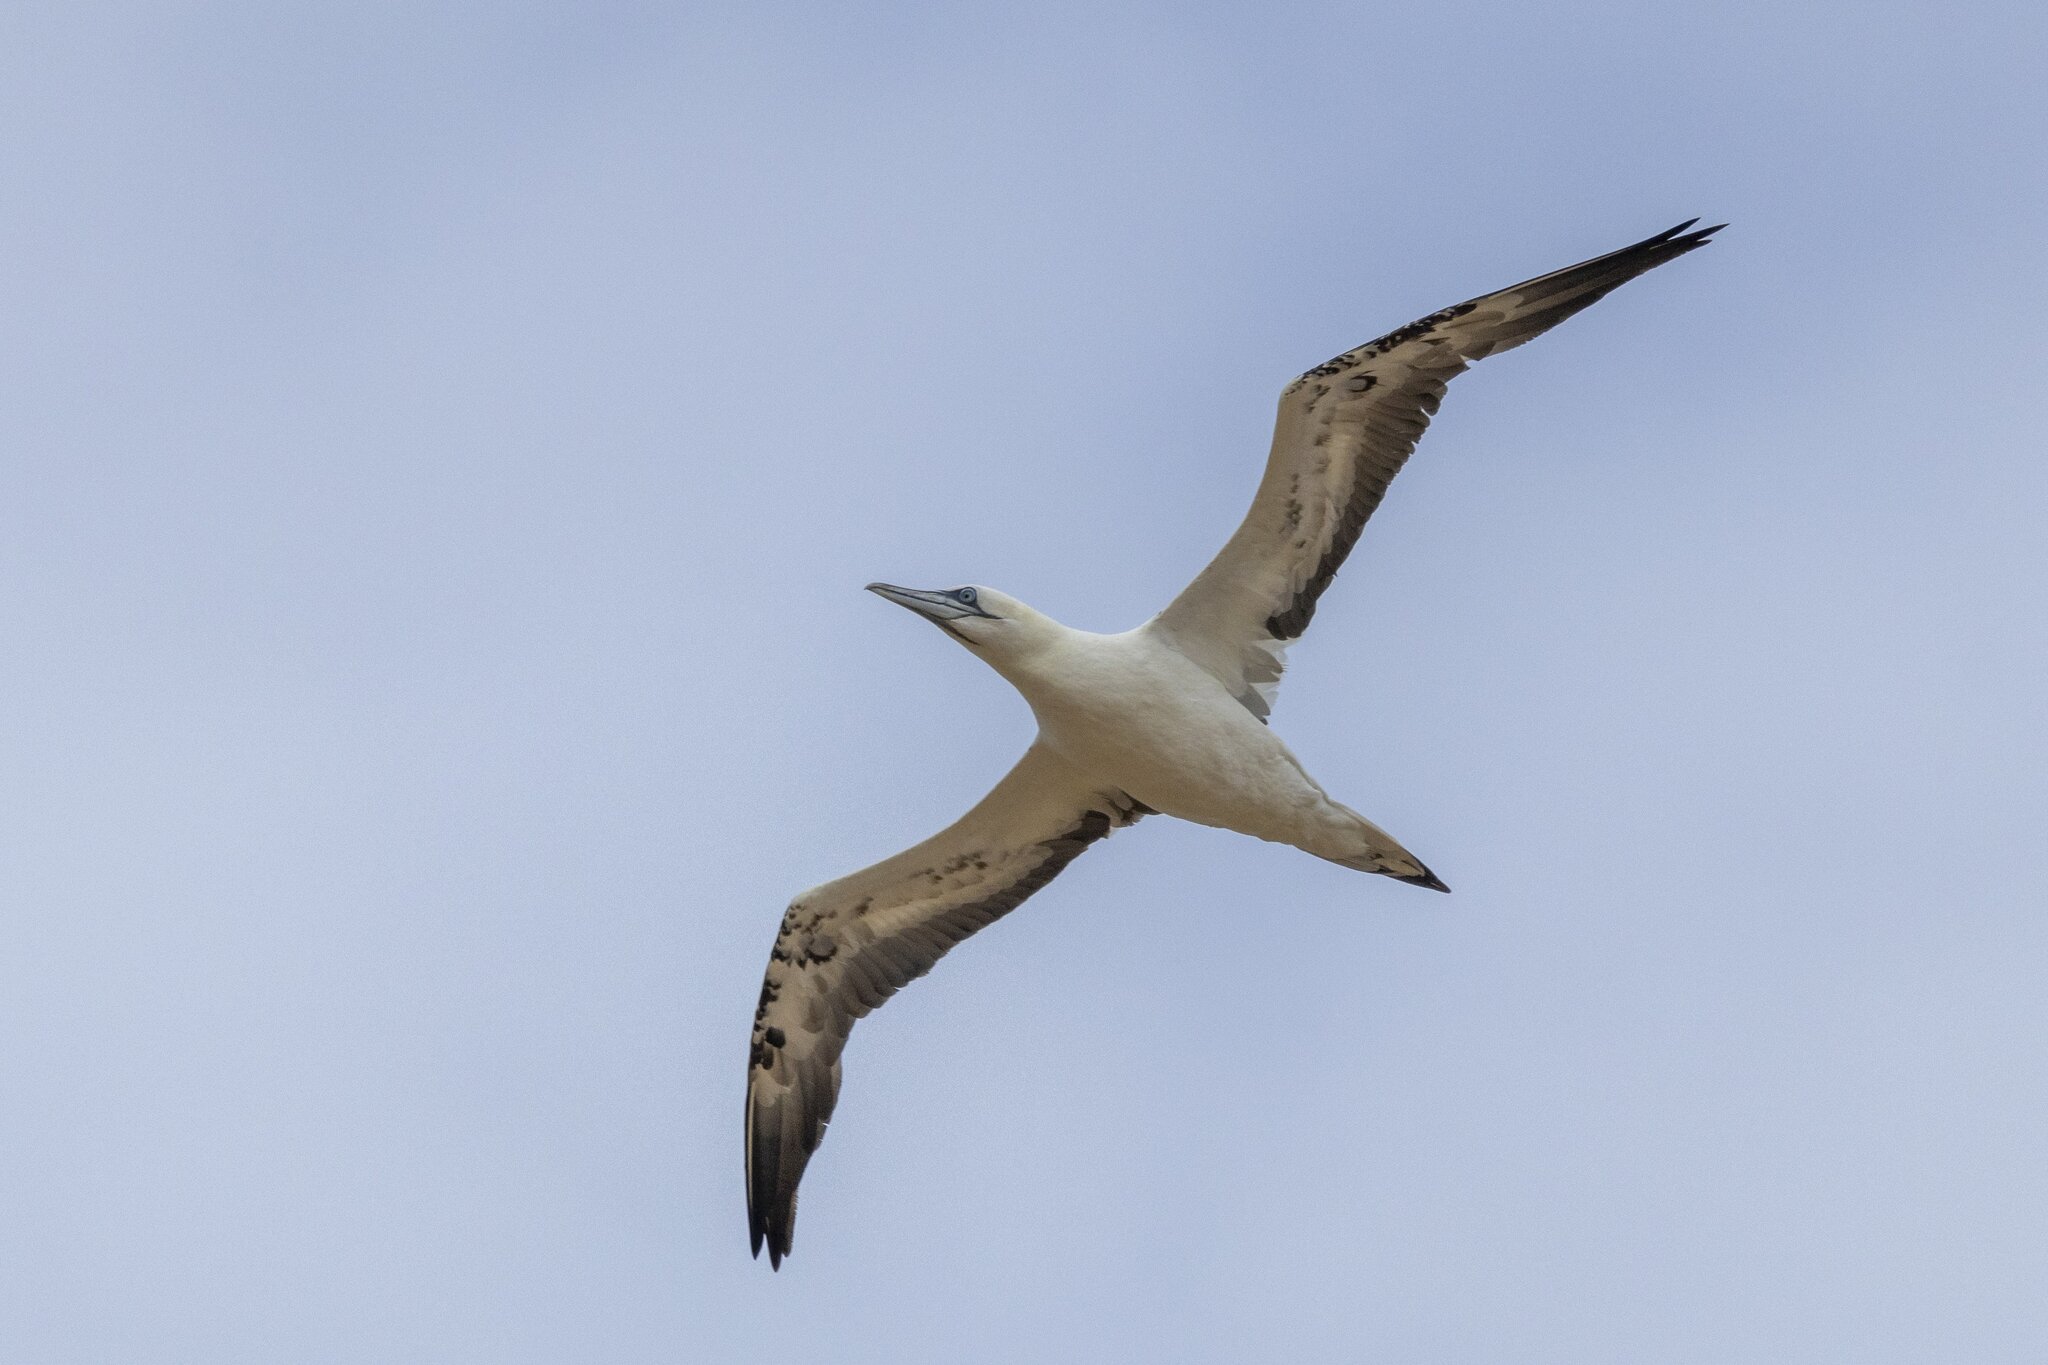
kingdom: Animalia
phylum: Chordata
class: Aves
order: Suliformes
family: Sulidae
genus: Morus
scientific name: Morus bassanus
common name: Northern gannet
